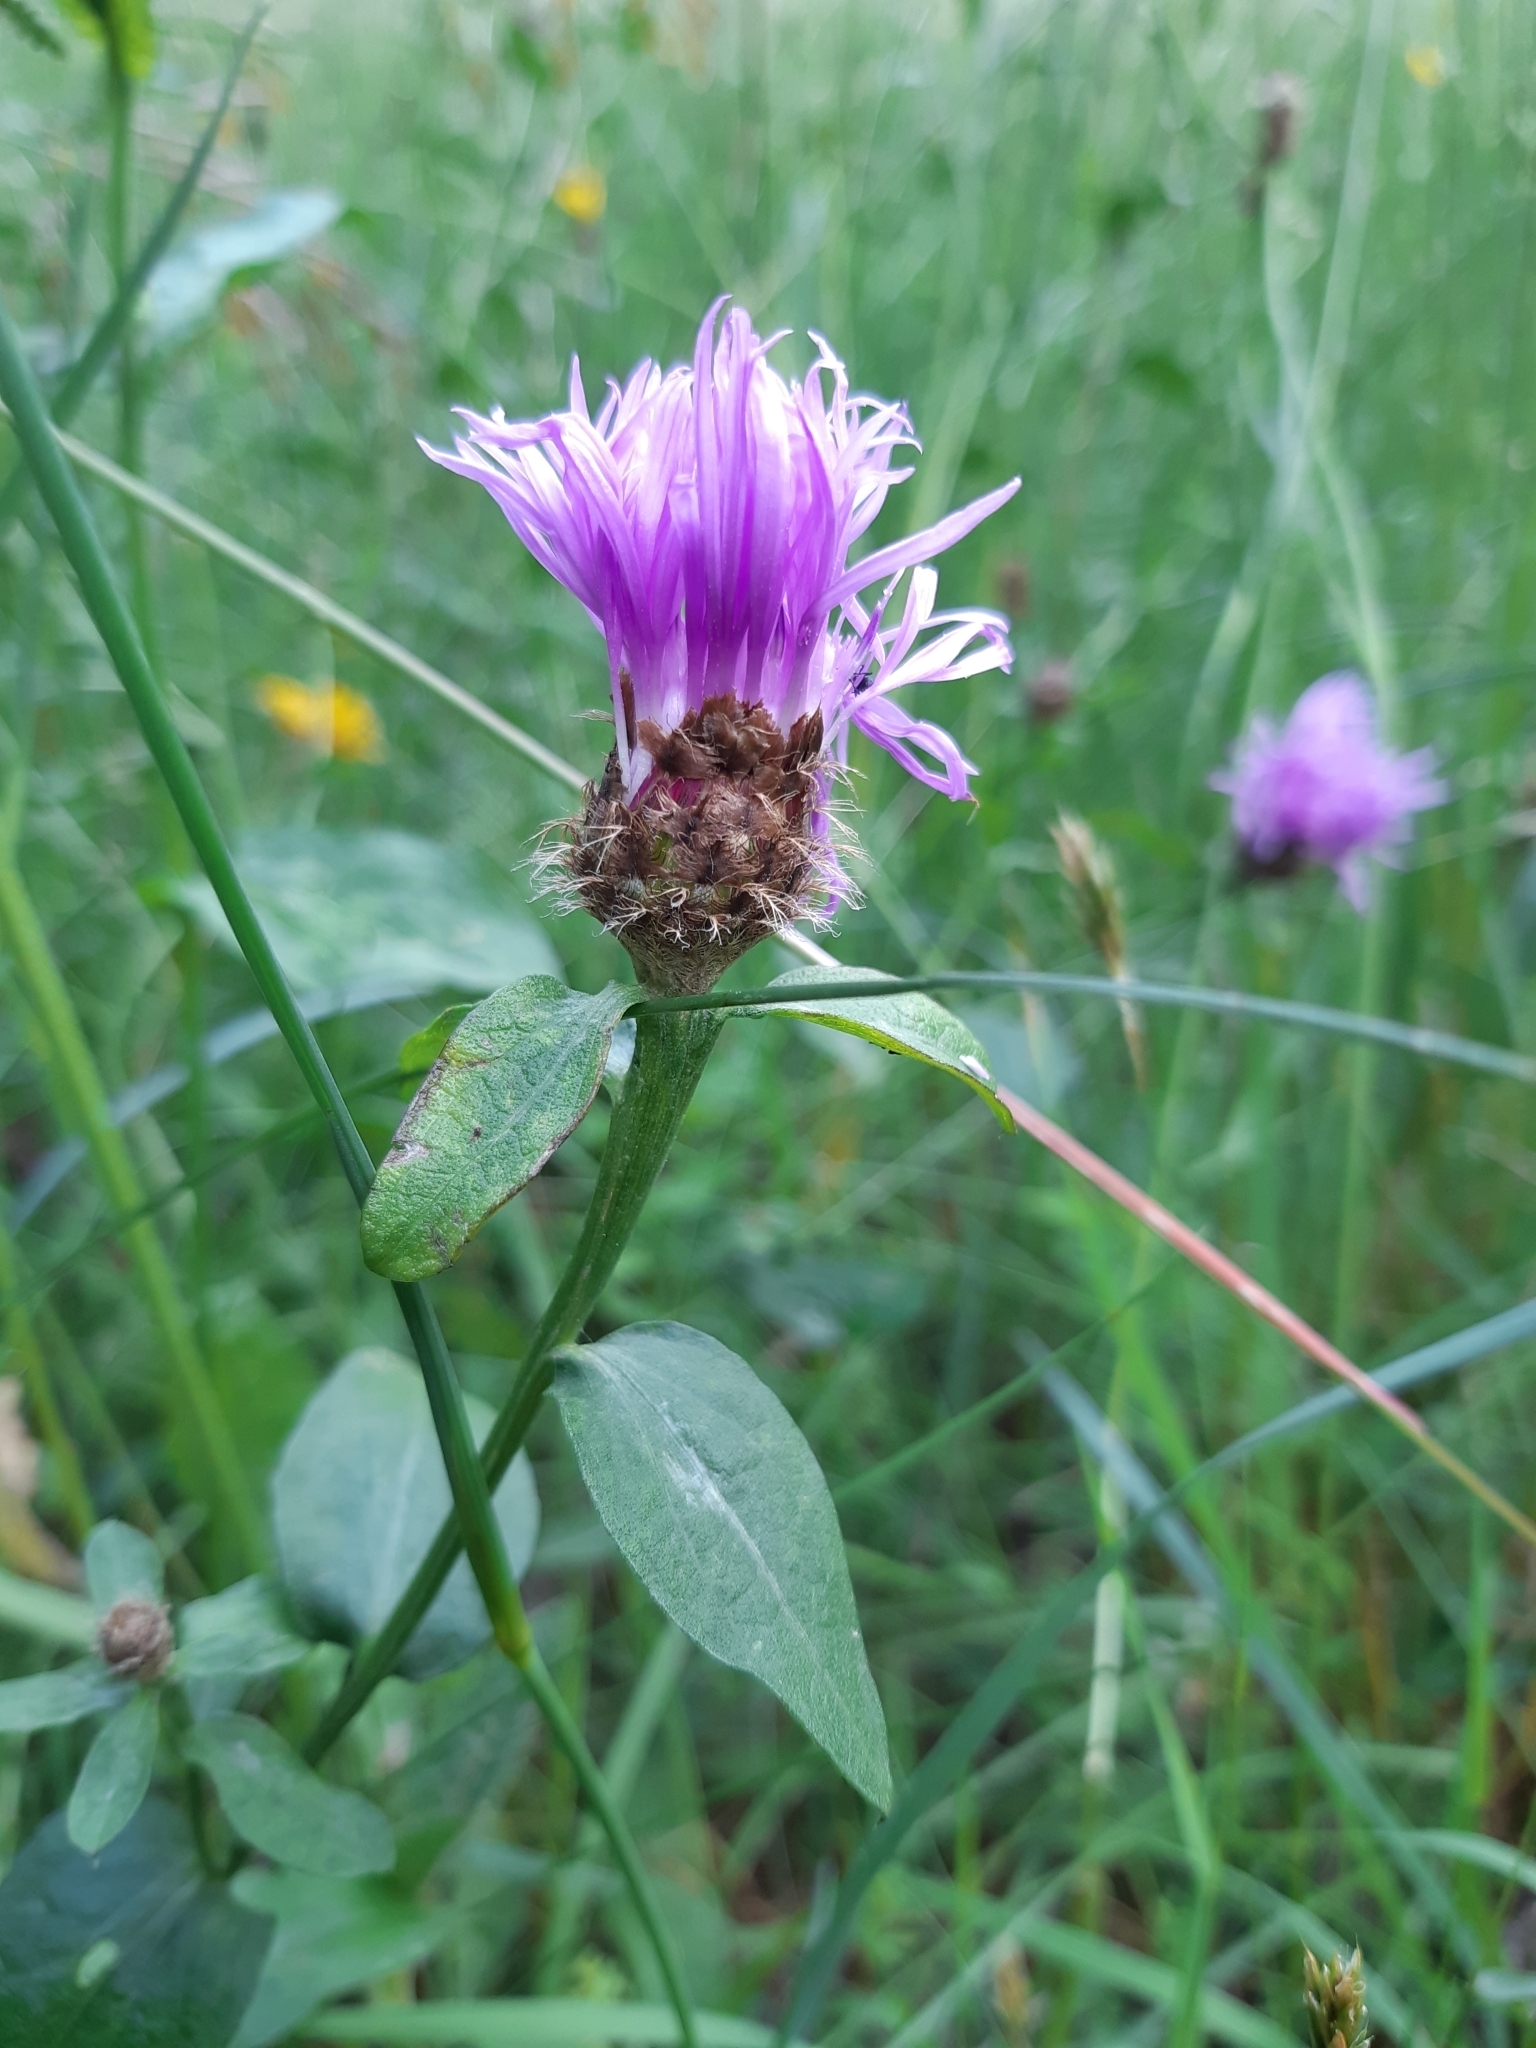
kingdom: Plantae
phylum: Tracheophyta
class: Magnoliopsida
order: Asterales
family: Asteraceae
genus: Centaurea
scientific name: Centaurea jacea
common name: Brown knapweed
